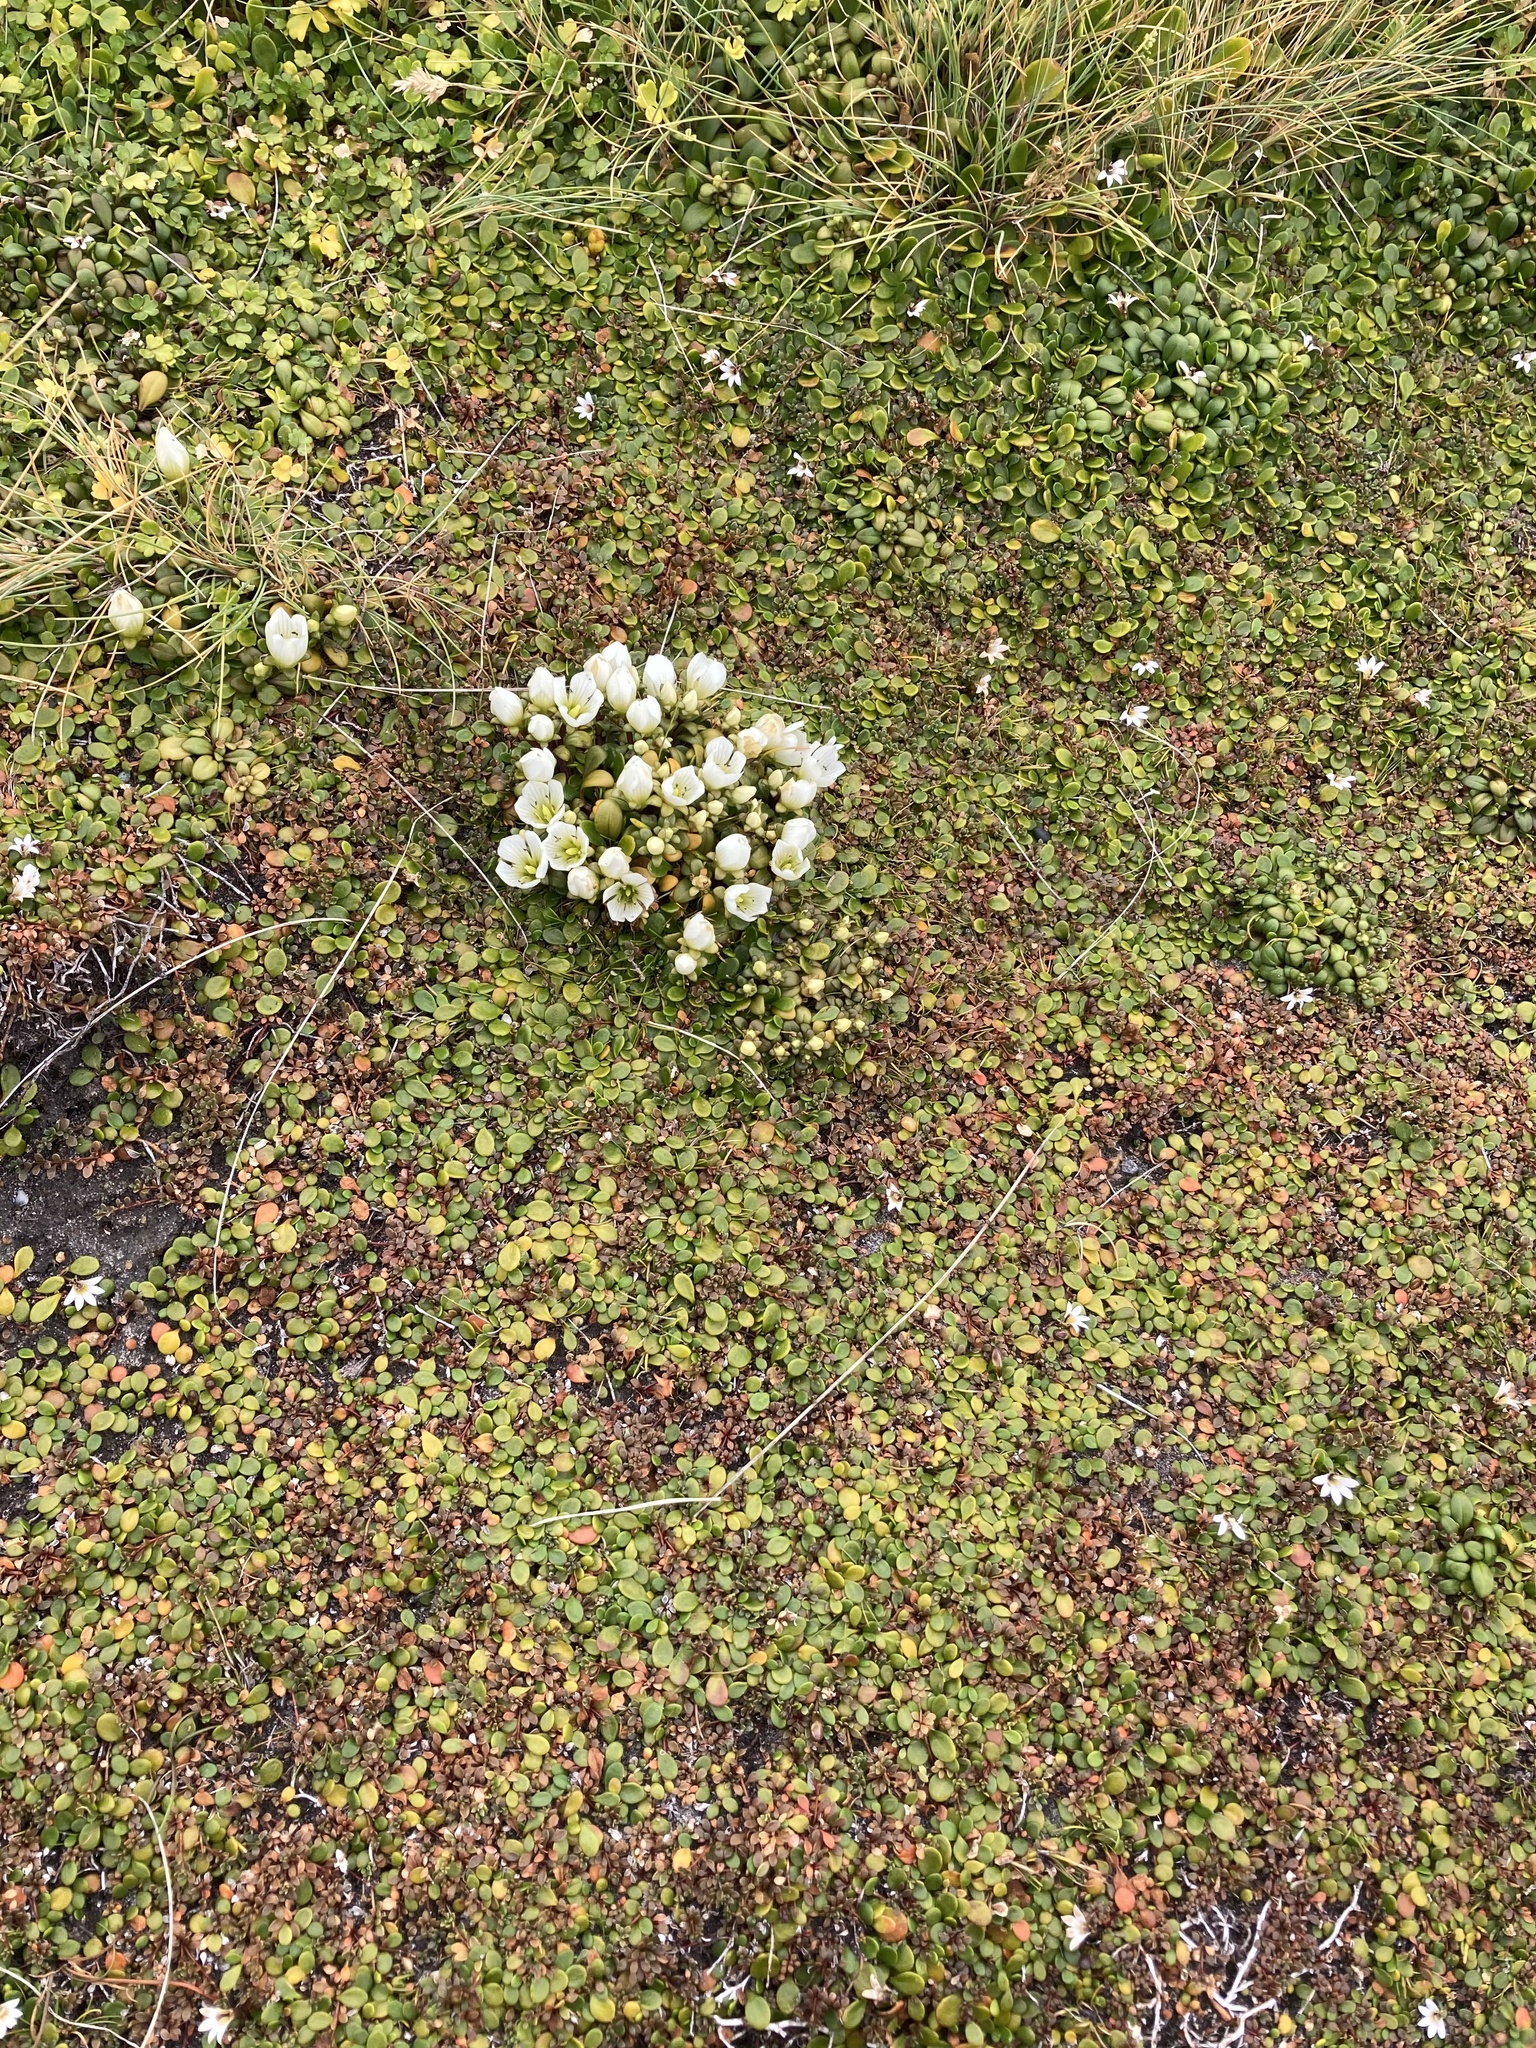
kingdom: Plantae
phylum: Tracheophyta
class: Magnoliopsida
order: Gentianales
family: Gentianaceae
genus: Gentianella
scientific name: Gentianella saxosa
